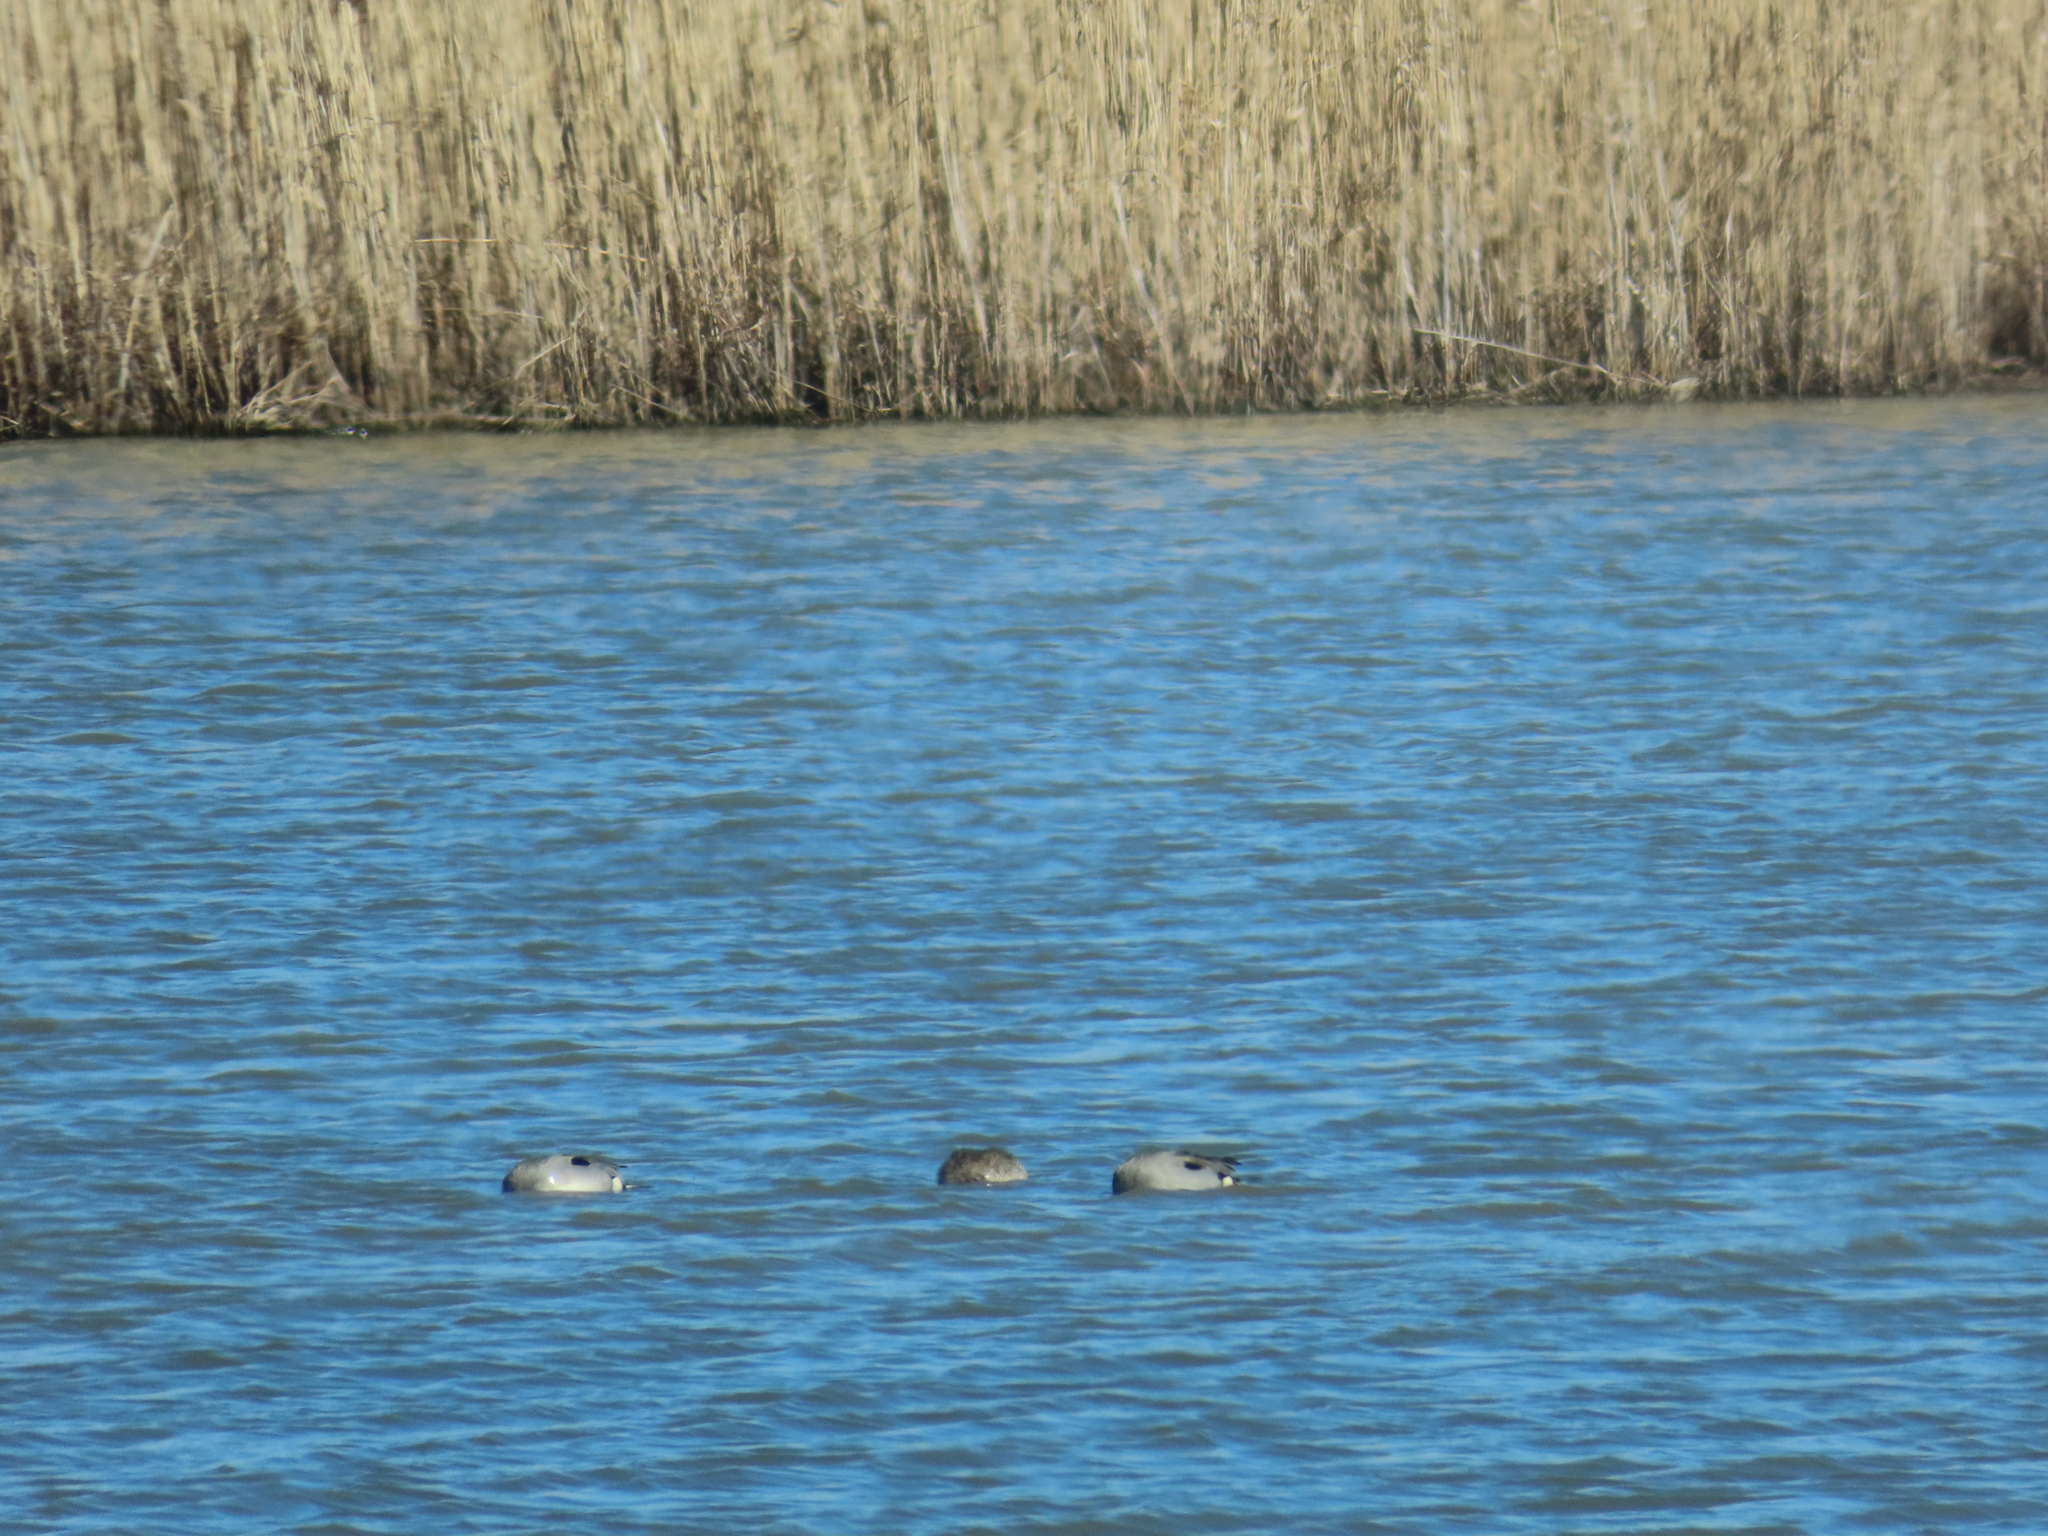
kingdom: Animalia
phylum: Chordata
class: Aves
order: Anseriformes
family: Anatidae
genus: Anas
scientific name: Anas acuta
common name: Northern pintail
